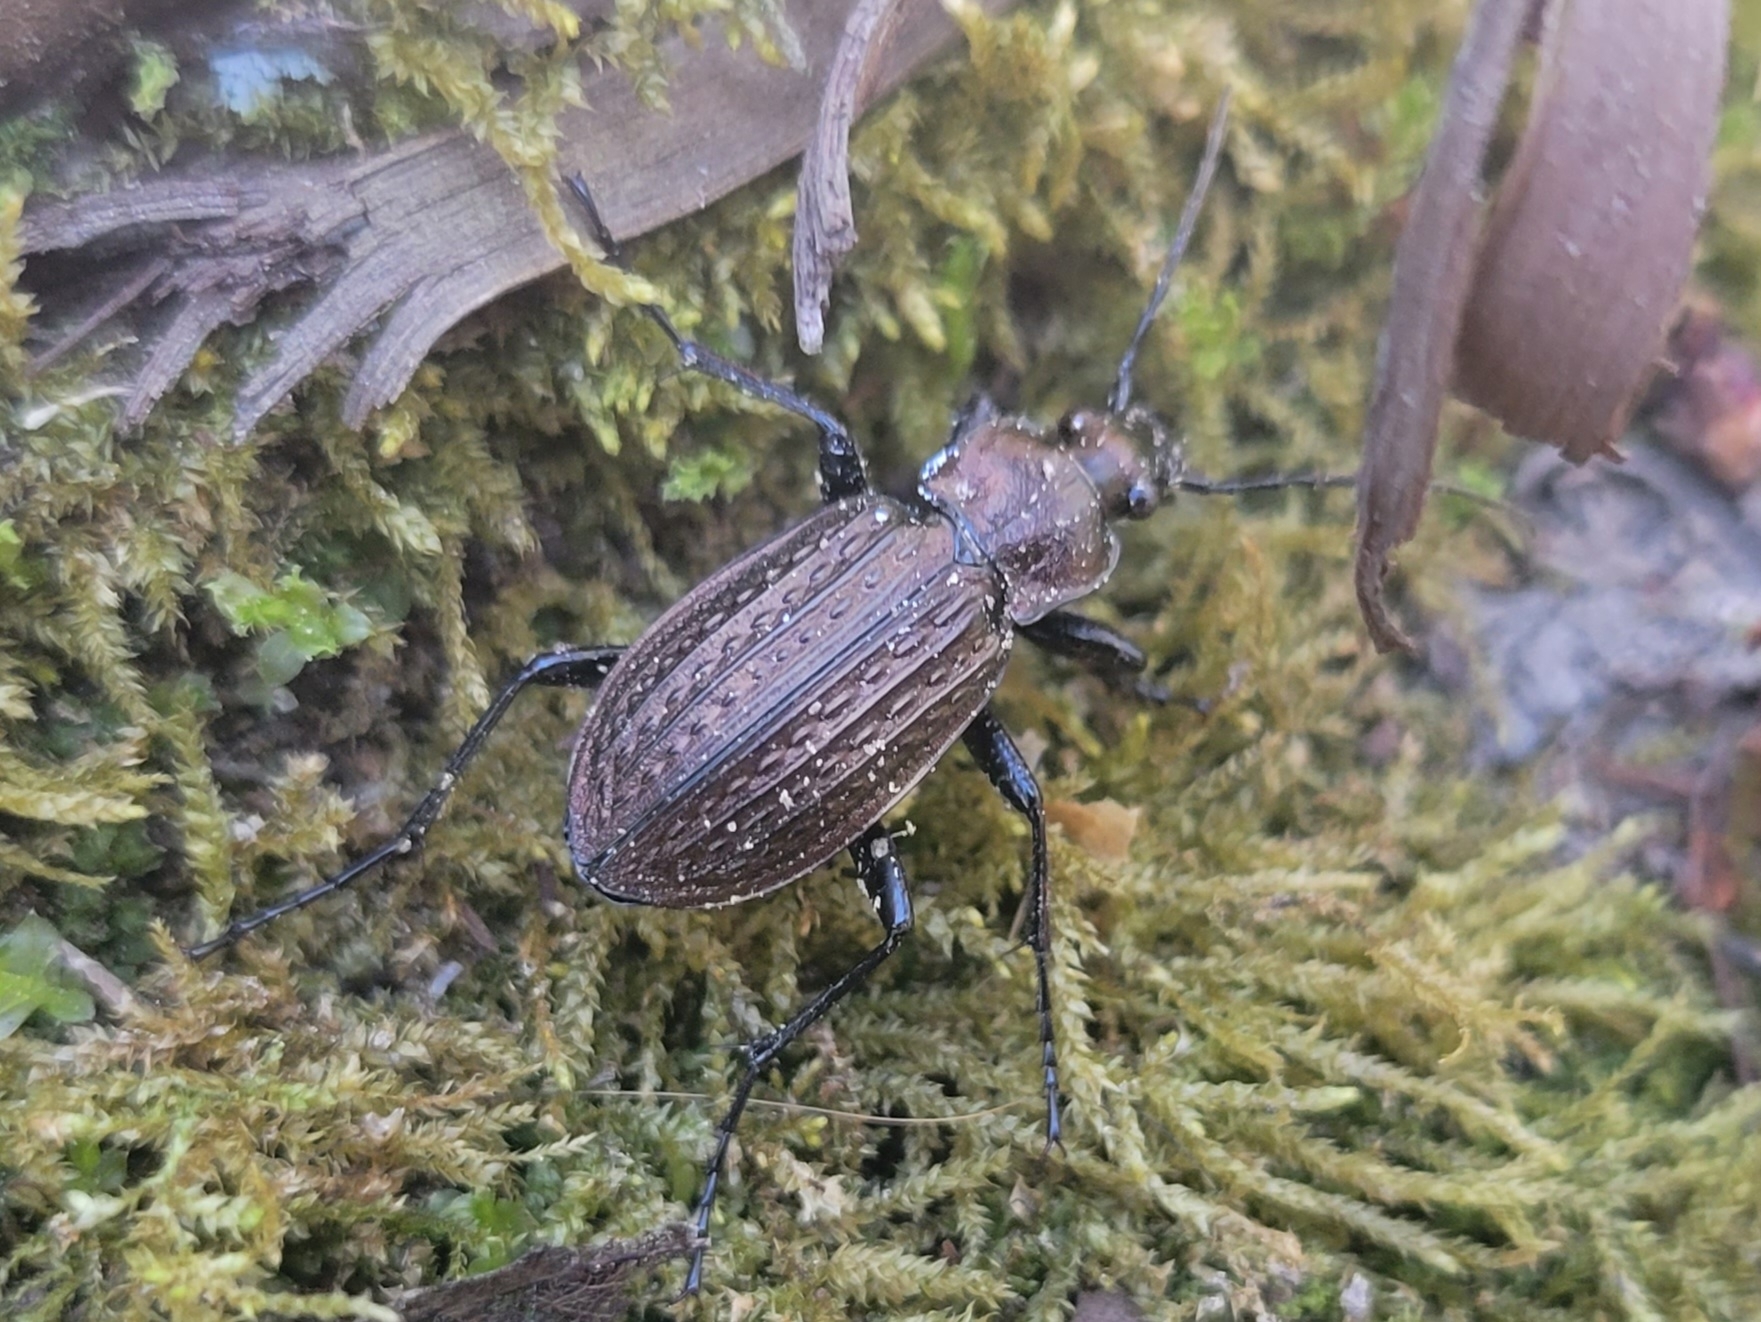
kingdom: Animalia
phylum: Arthropoda
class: Insecta
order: Coleoptera
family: Carabidae
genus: Carabus
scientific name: Carabus granulatus
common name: Granulate ground beetle
